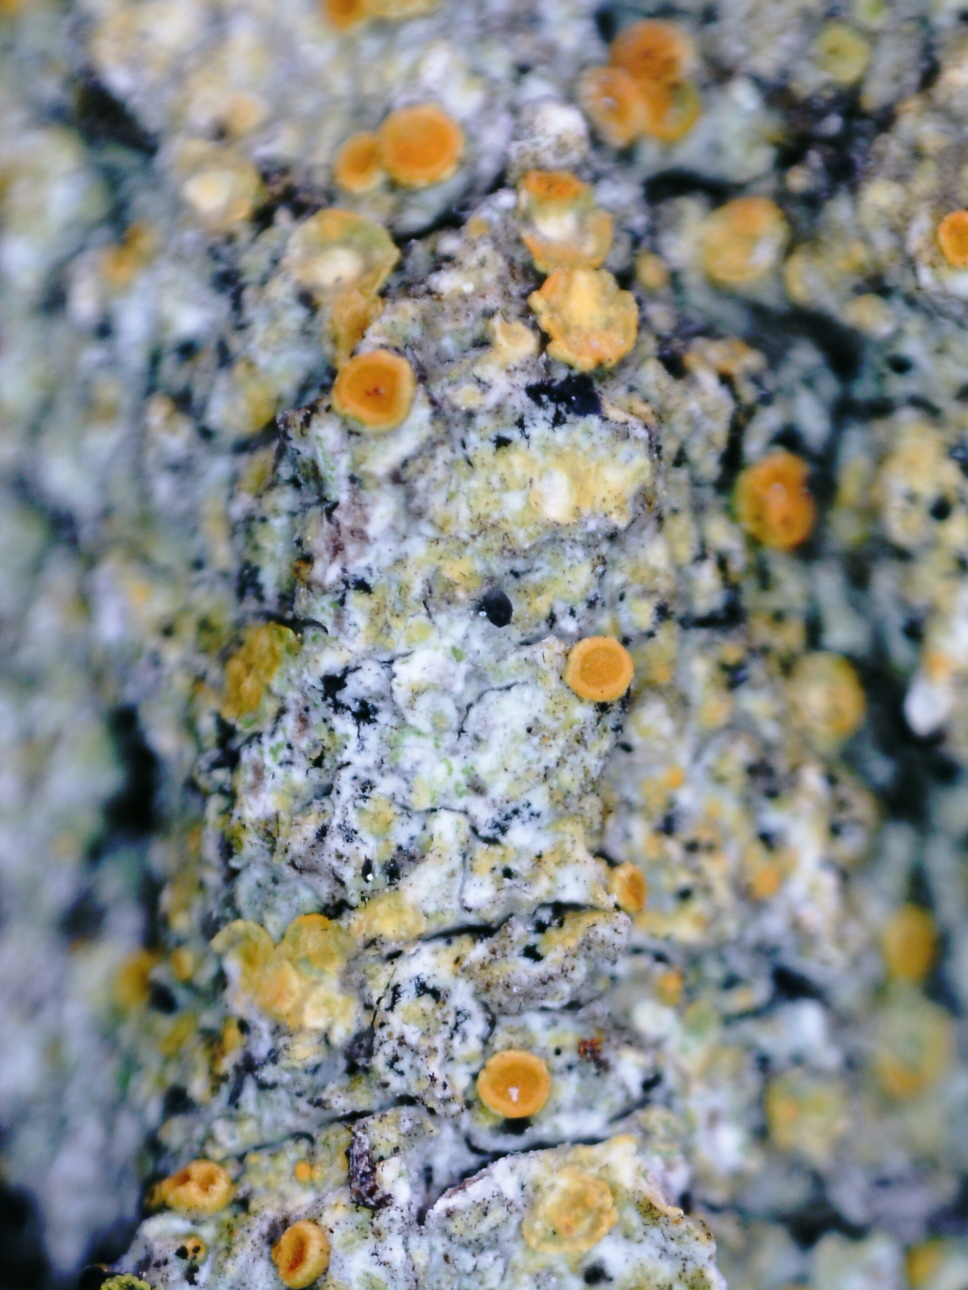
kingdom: Fungi
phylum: Ascomycota
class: Lecanoromycetes
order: Teloschistales
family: Teloschistaceae
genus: Opeltia
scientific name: Opeltia flavorubescens
